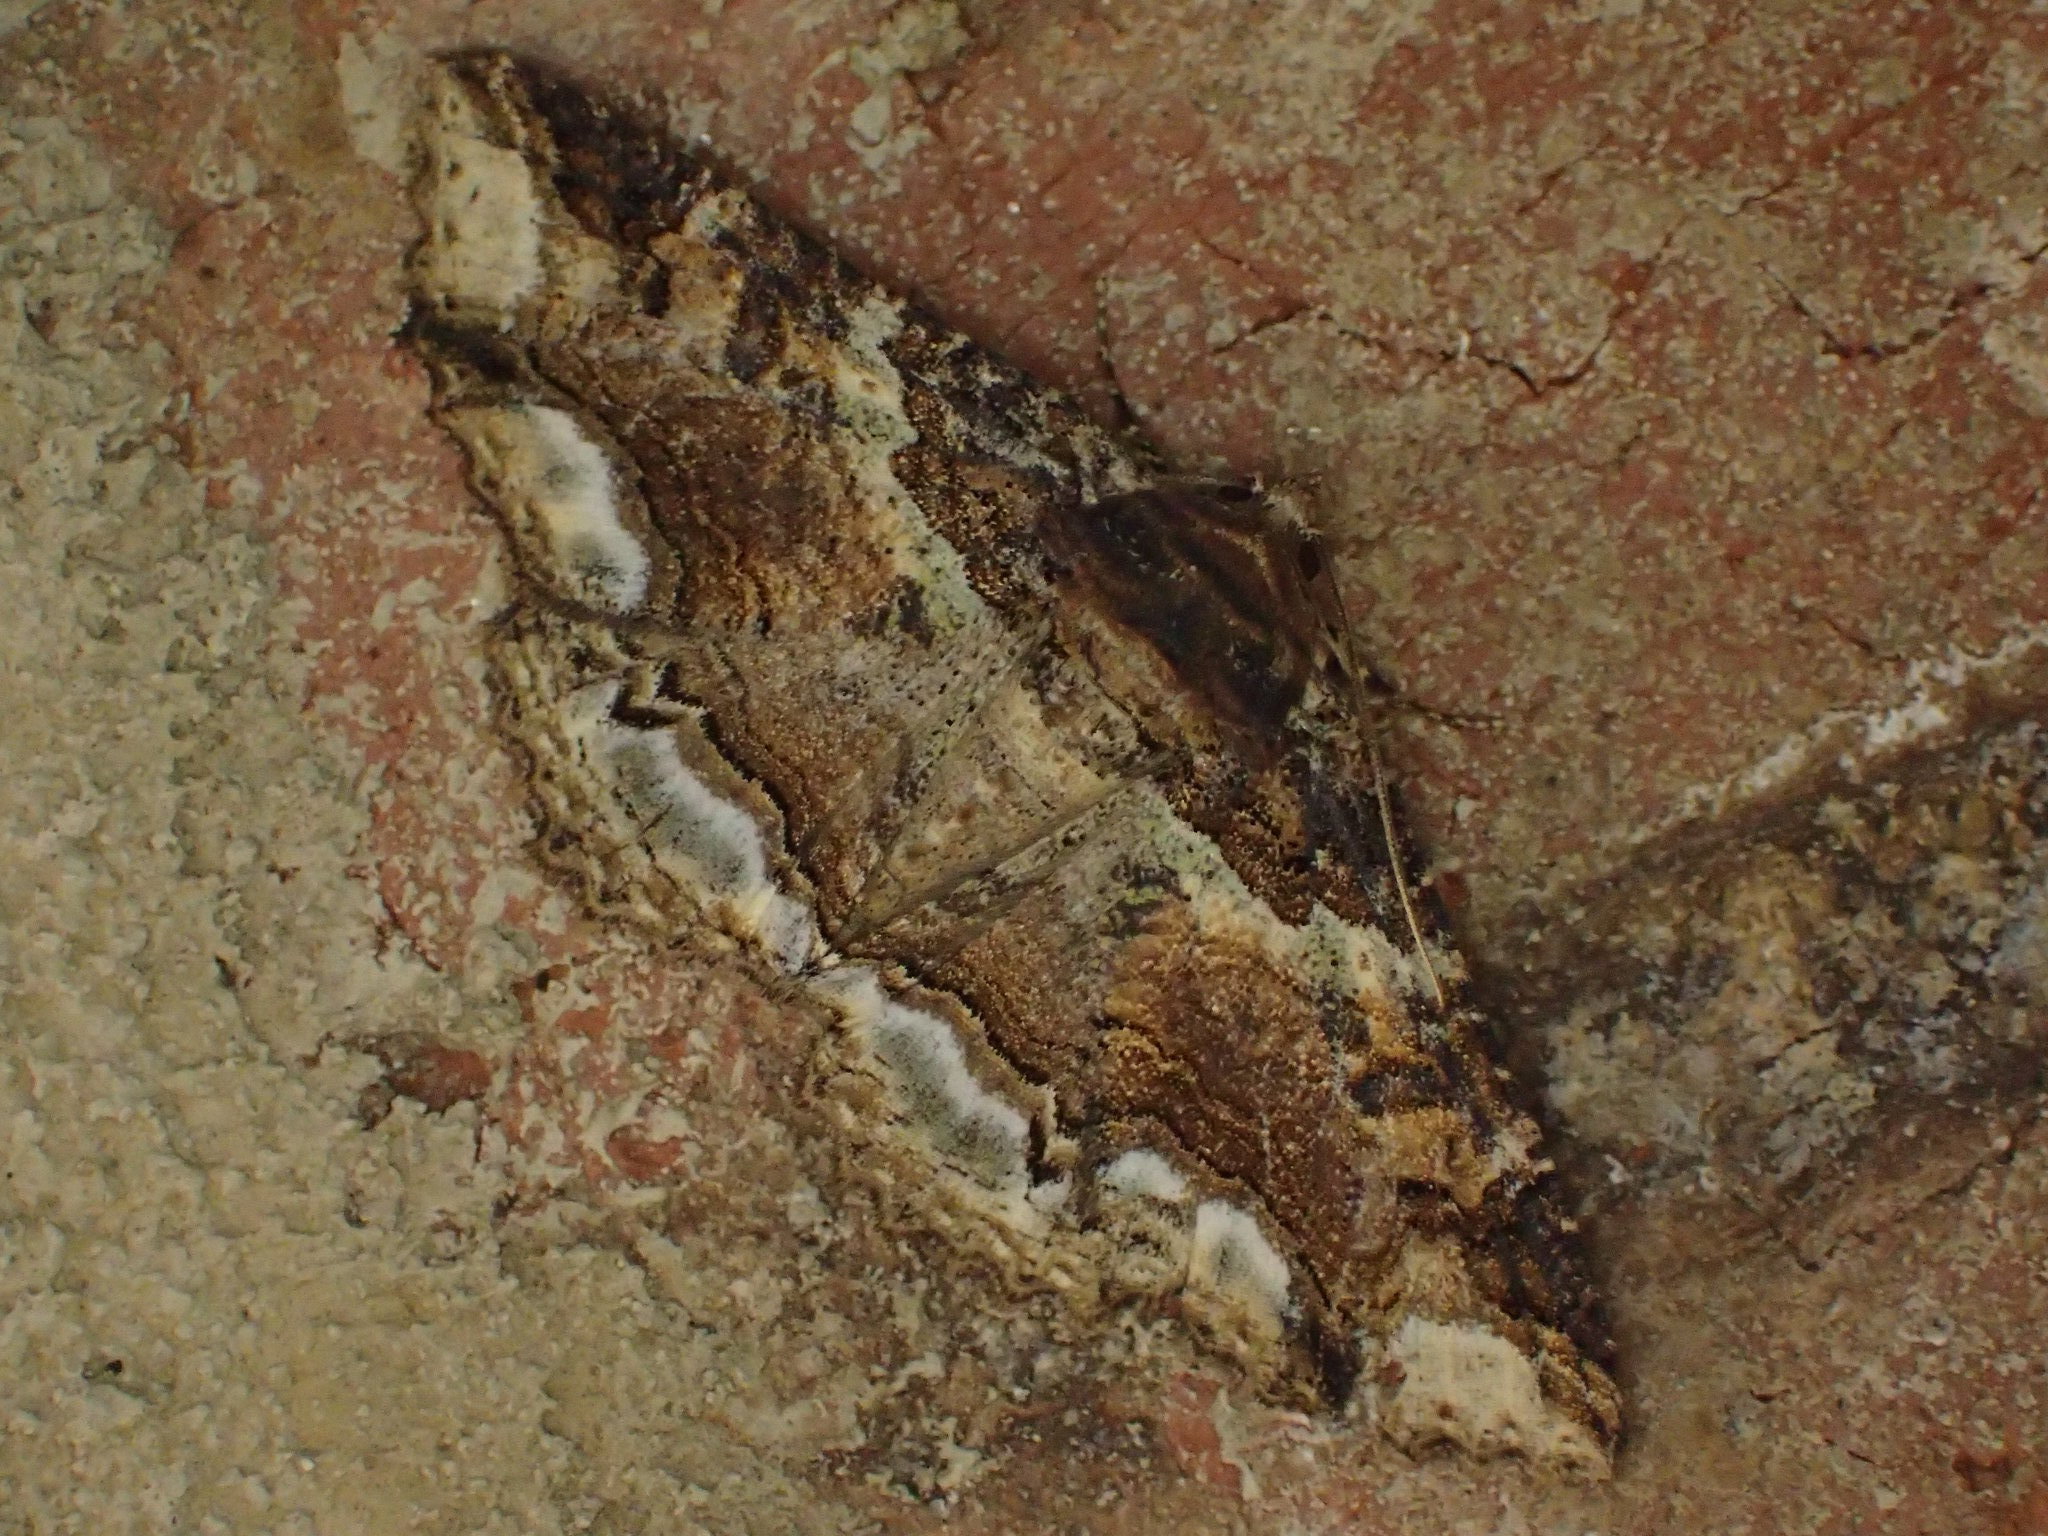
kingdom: Animalia
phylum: Arthropoda
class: Insecta
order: Lepidoptera
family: Erebidae
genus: Zale
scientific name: Zale minerea
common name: Colorful zale moth
